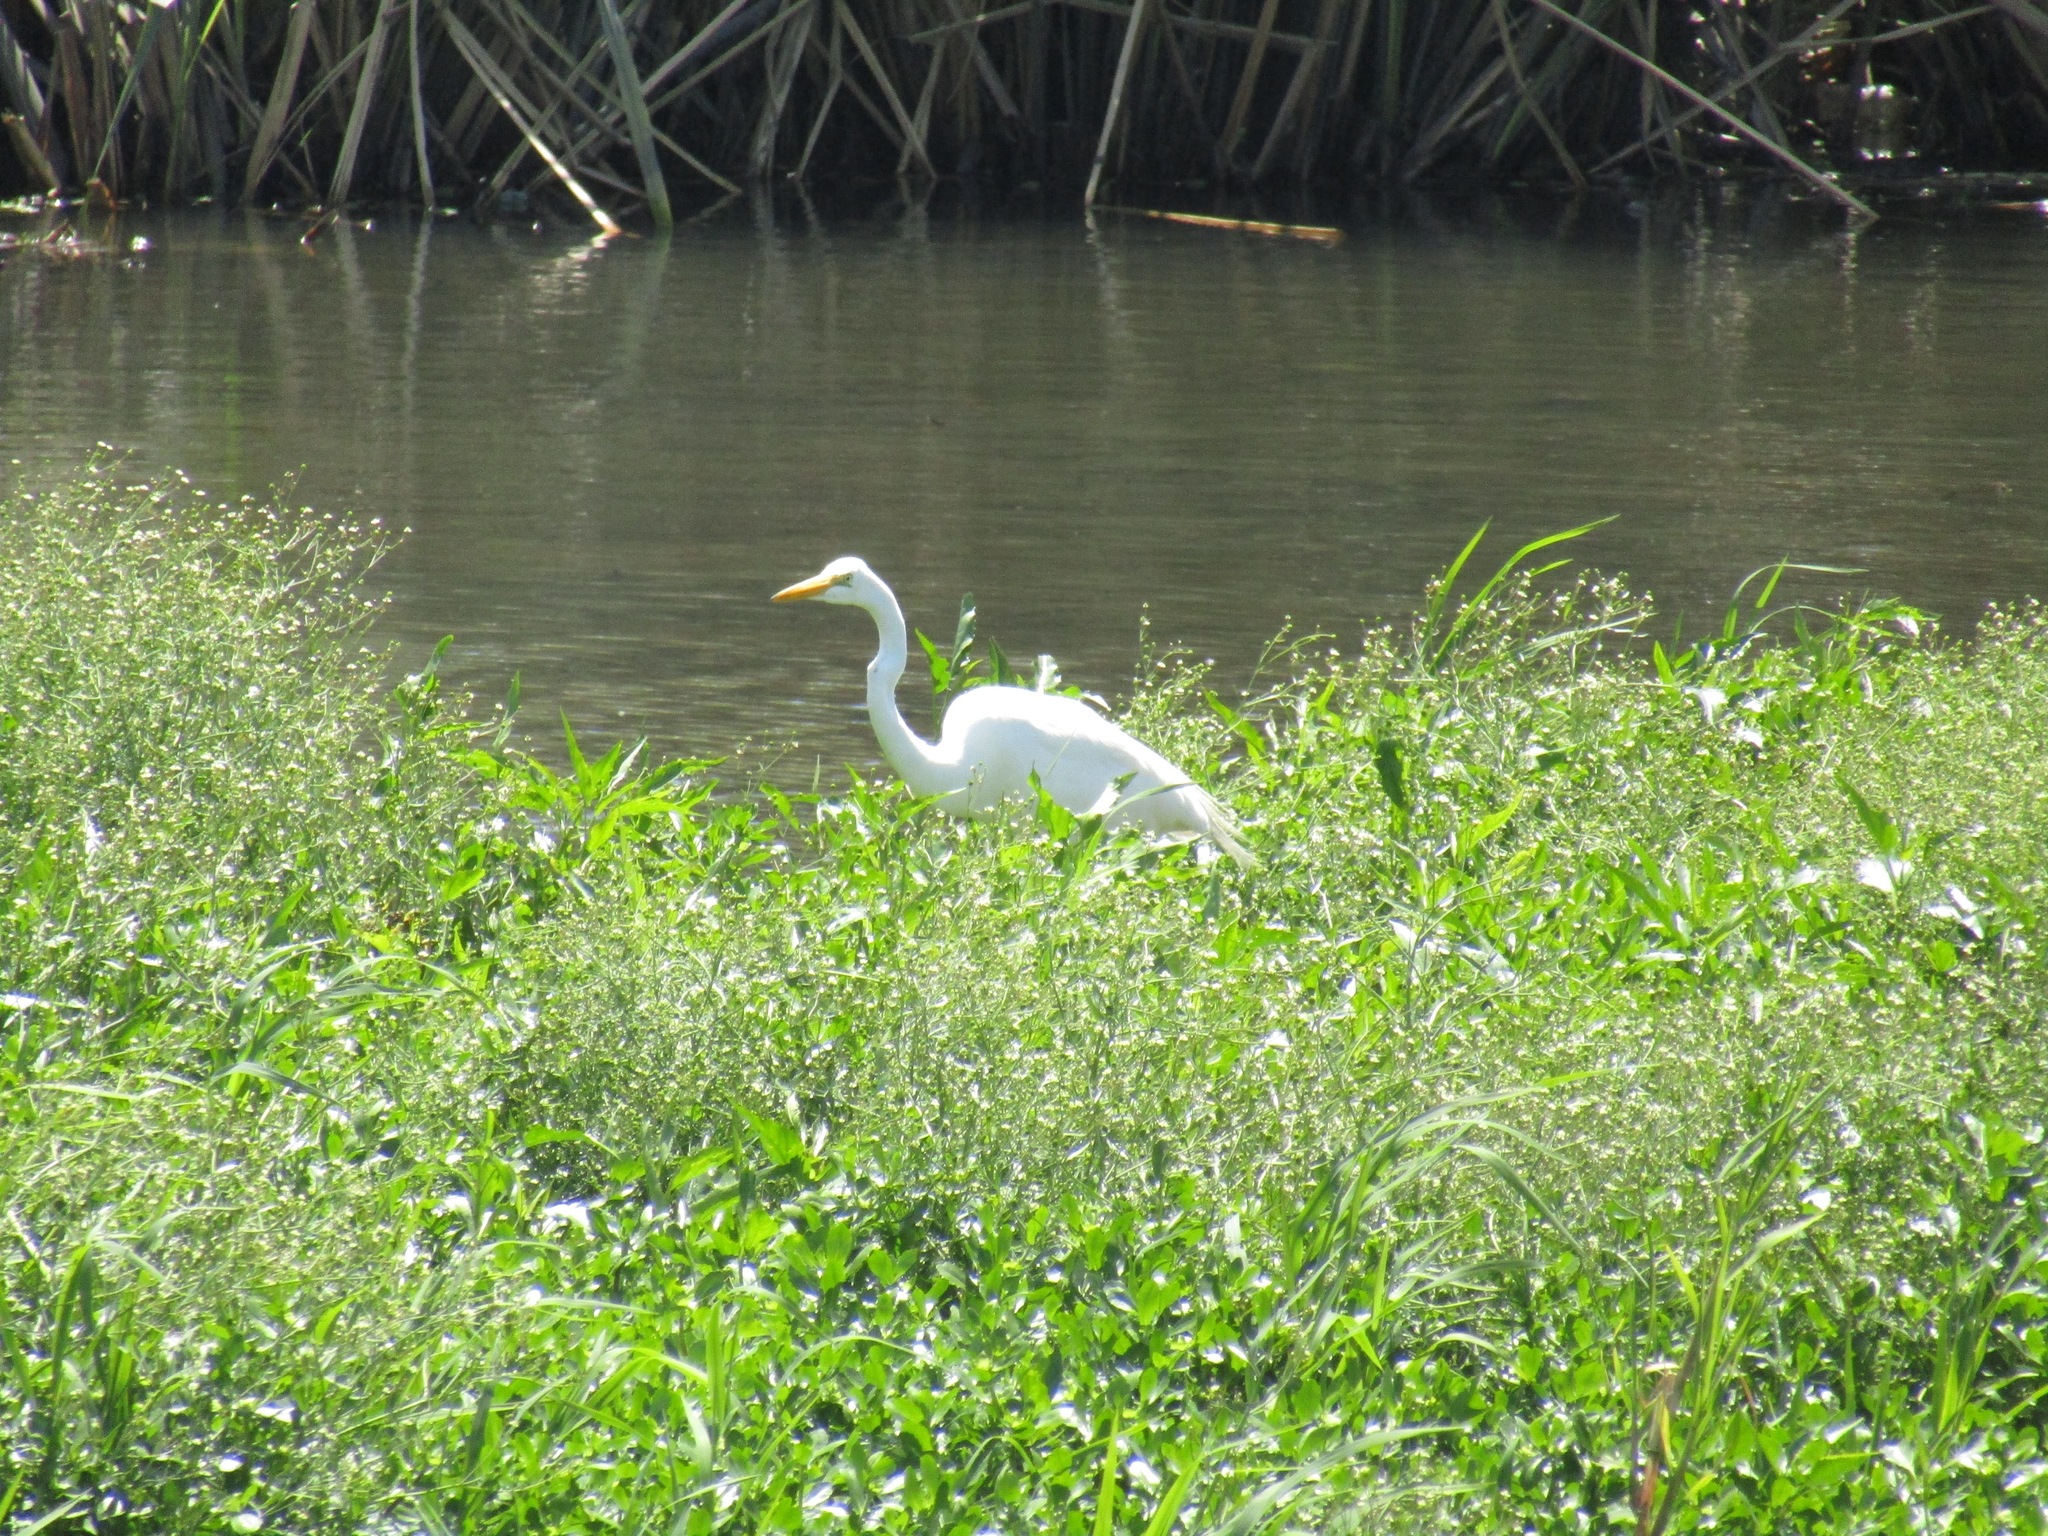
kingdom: Animalia
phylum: Chordata
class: Aves
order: Pelecaniformes
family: Ardeidae
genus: Ardea
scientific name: Ardea alba
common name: Great egret
